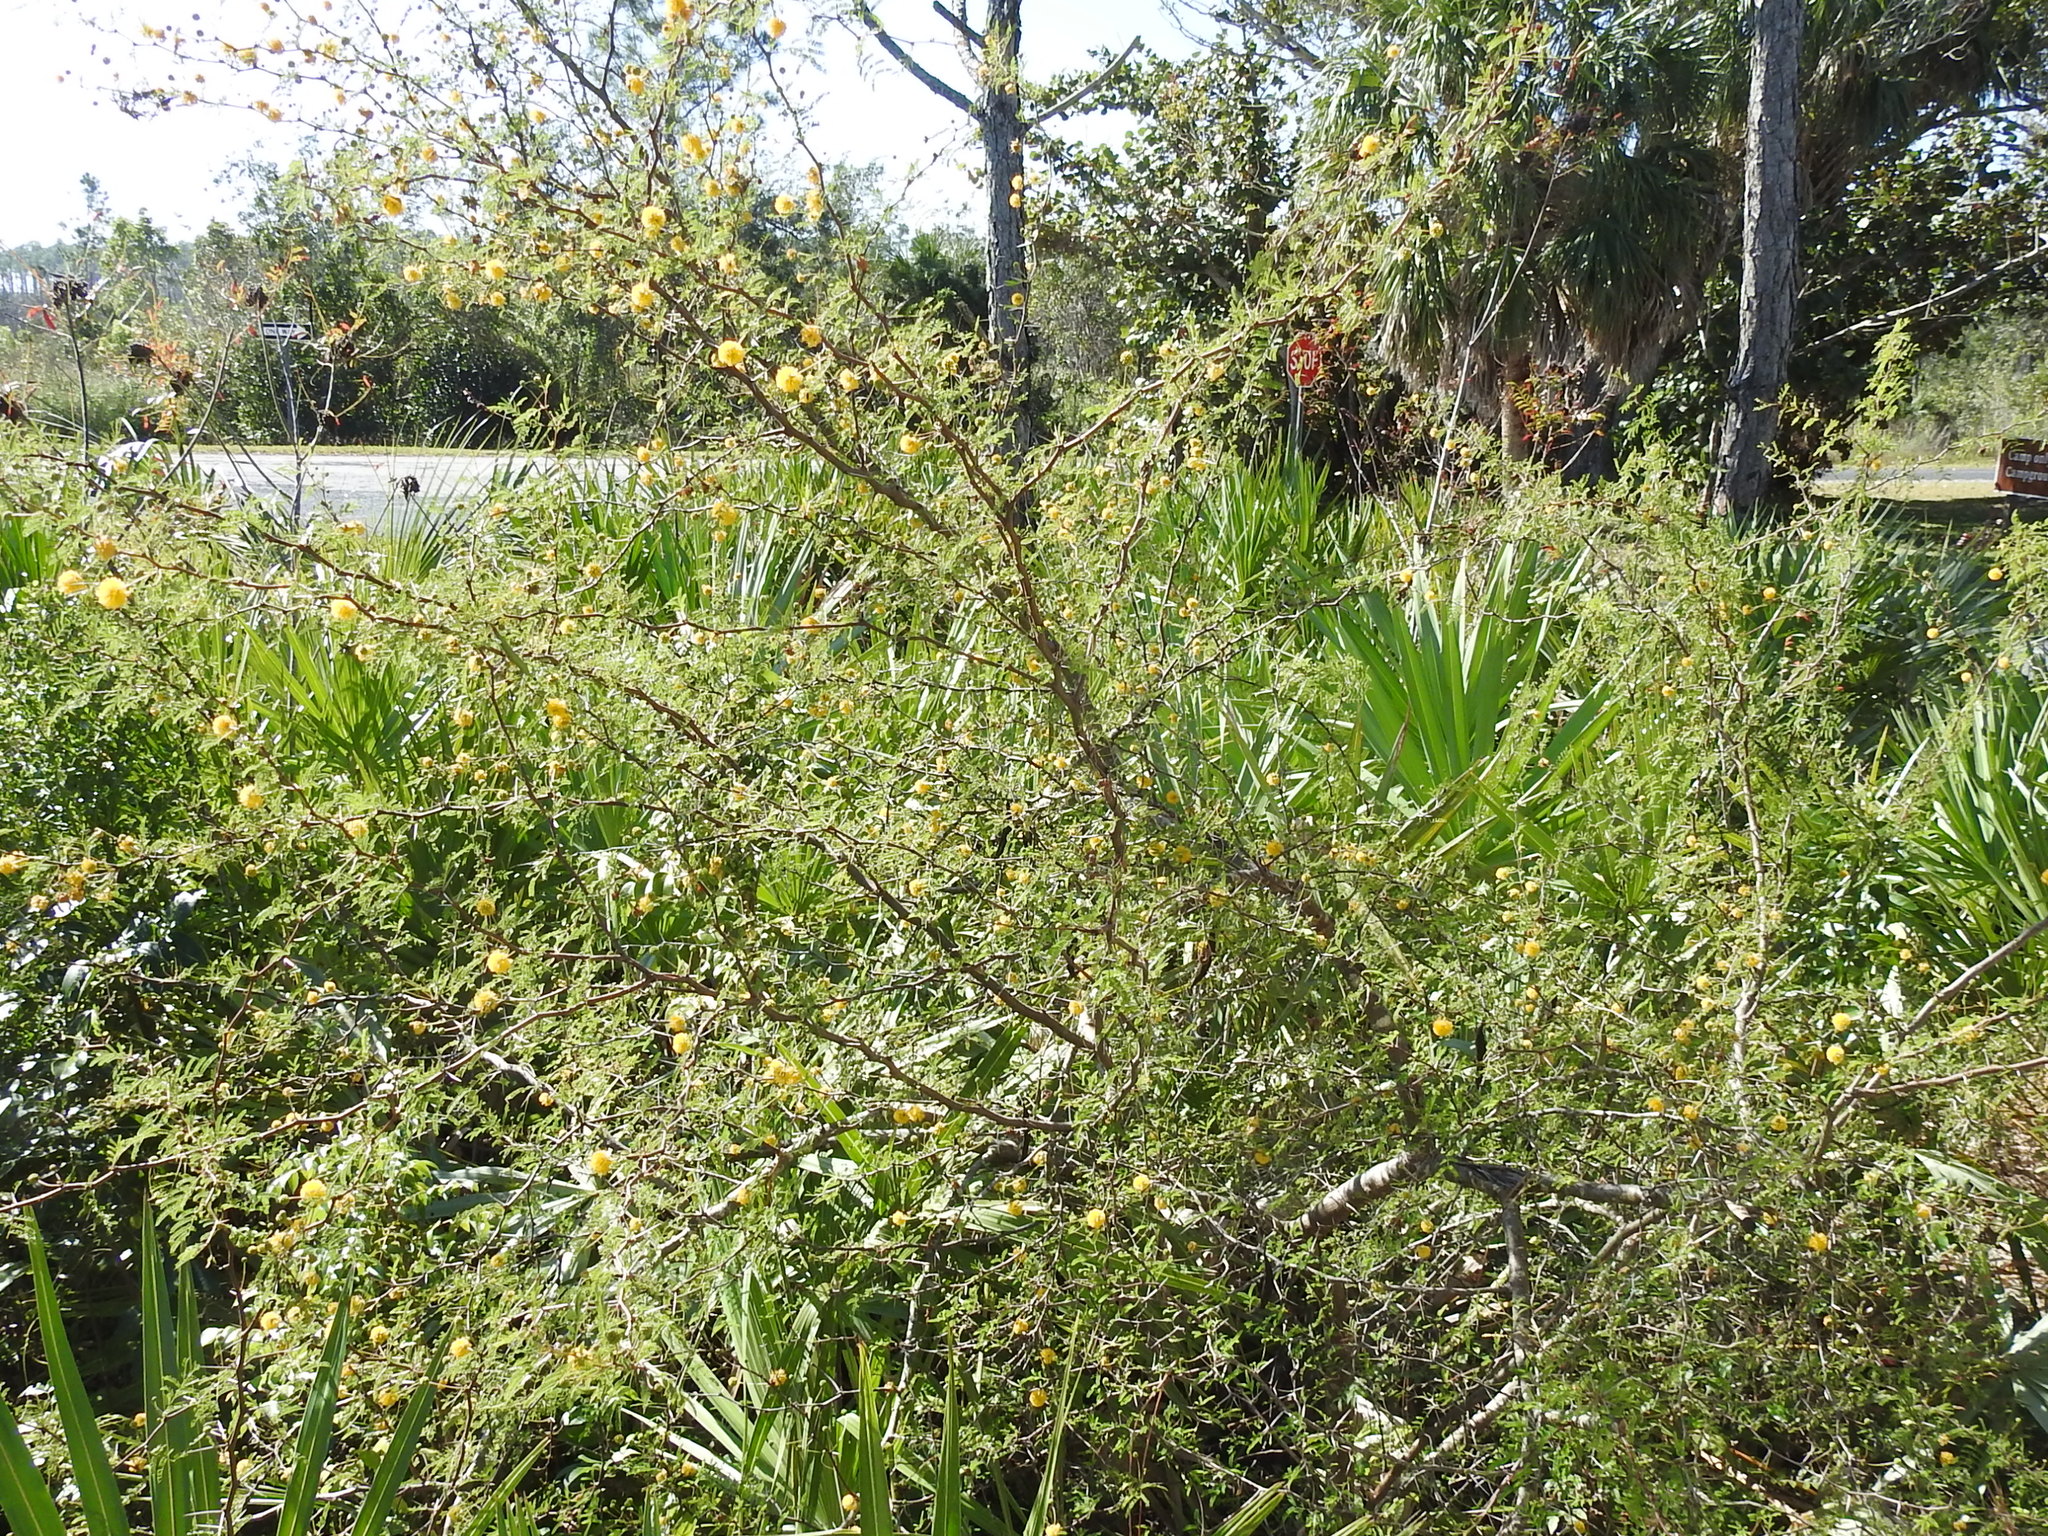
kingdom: Plantae
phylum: Tracheophyta
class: Magnoliopsida
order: Fabales
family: Fabaceae
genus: Vachellia
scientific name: Vachellia farnesiana
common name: Sweet acacia
